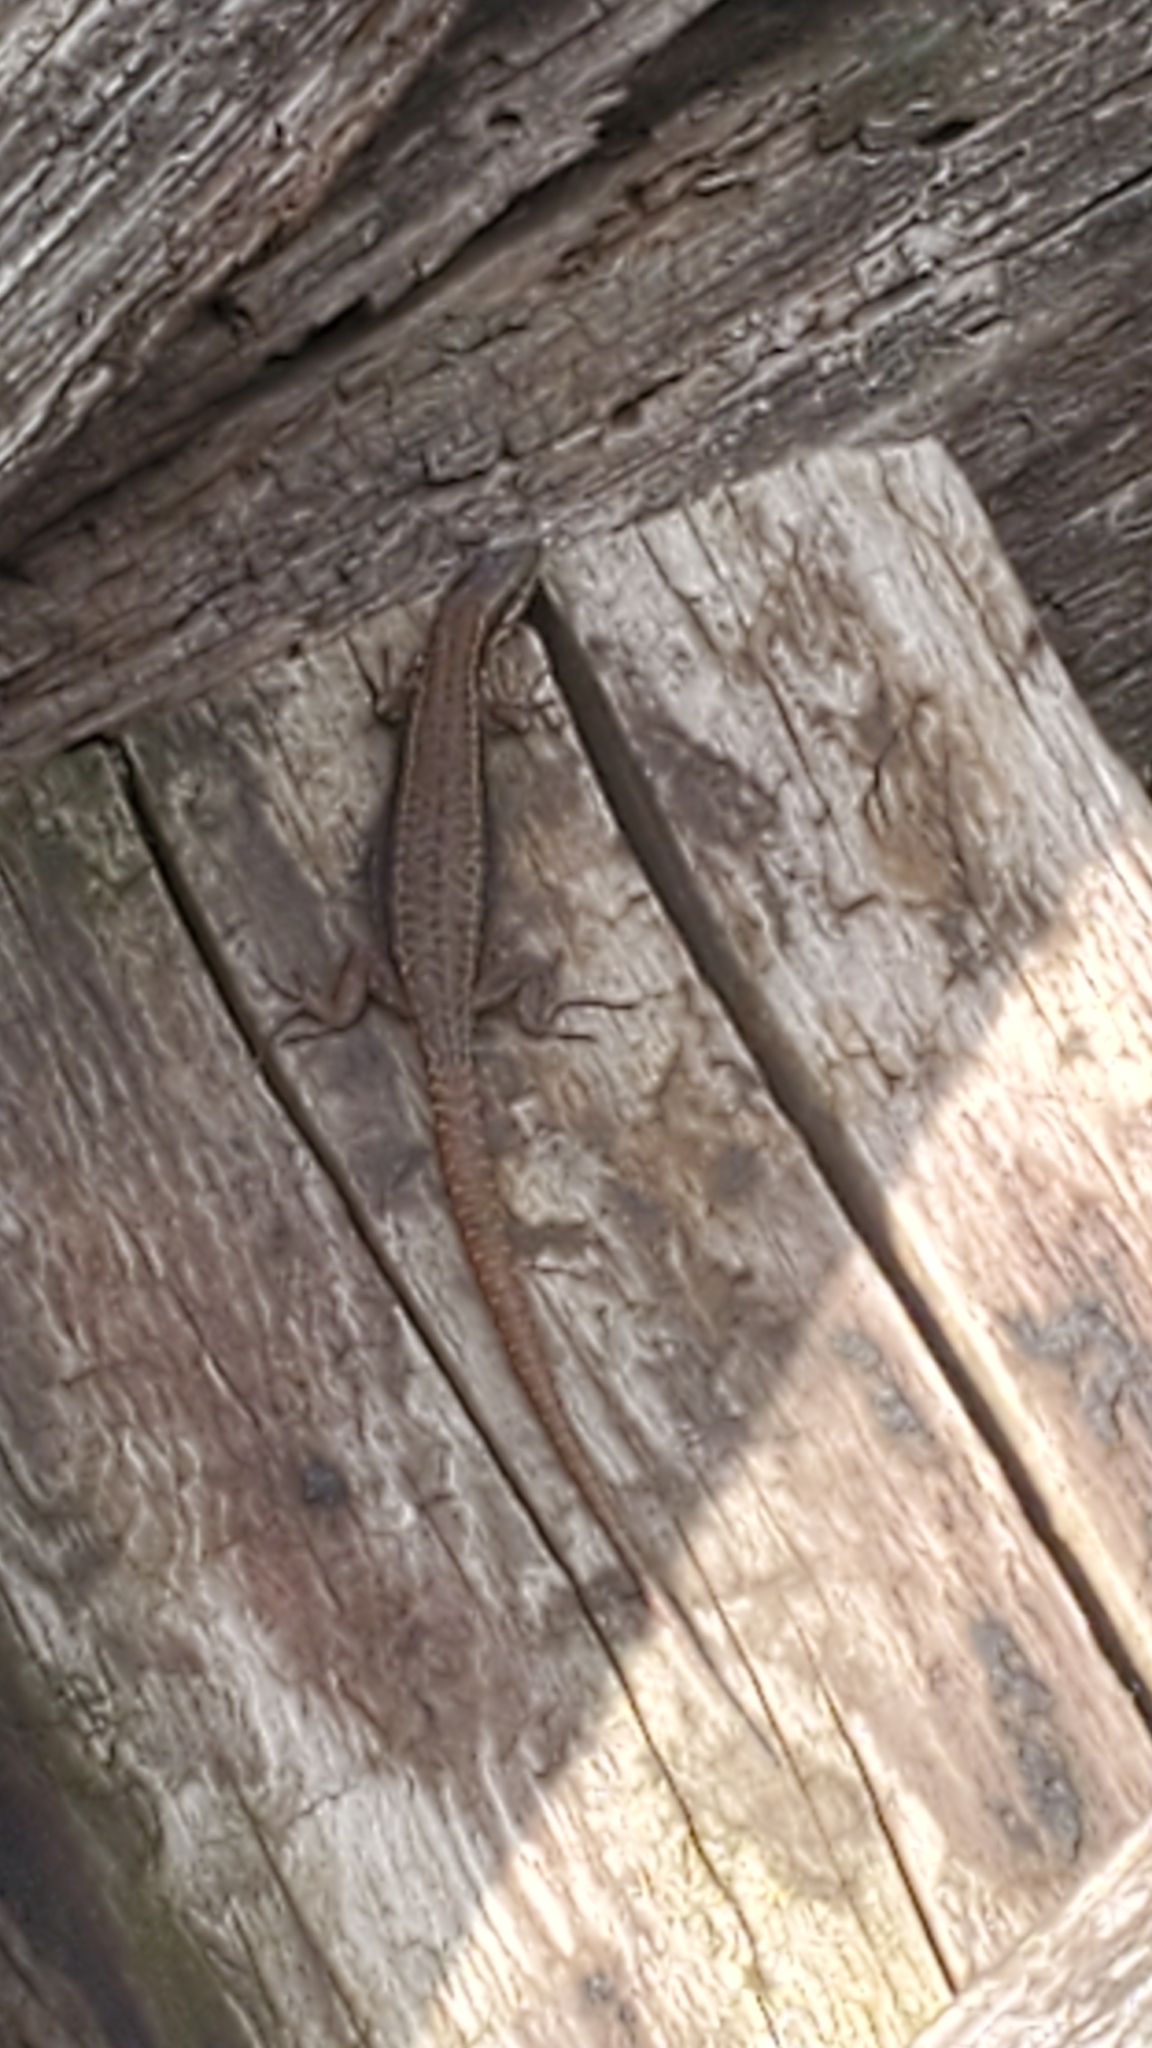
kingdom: Animalia
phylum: Chordata
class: Squamata
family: Lacertidae
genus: Podarcis
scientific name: Podarcis muralis
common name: Common wall lizard
